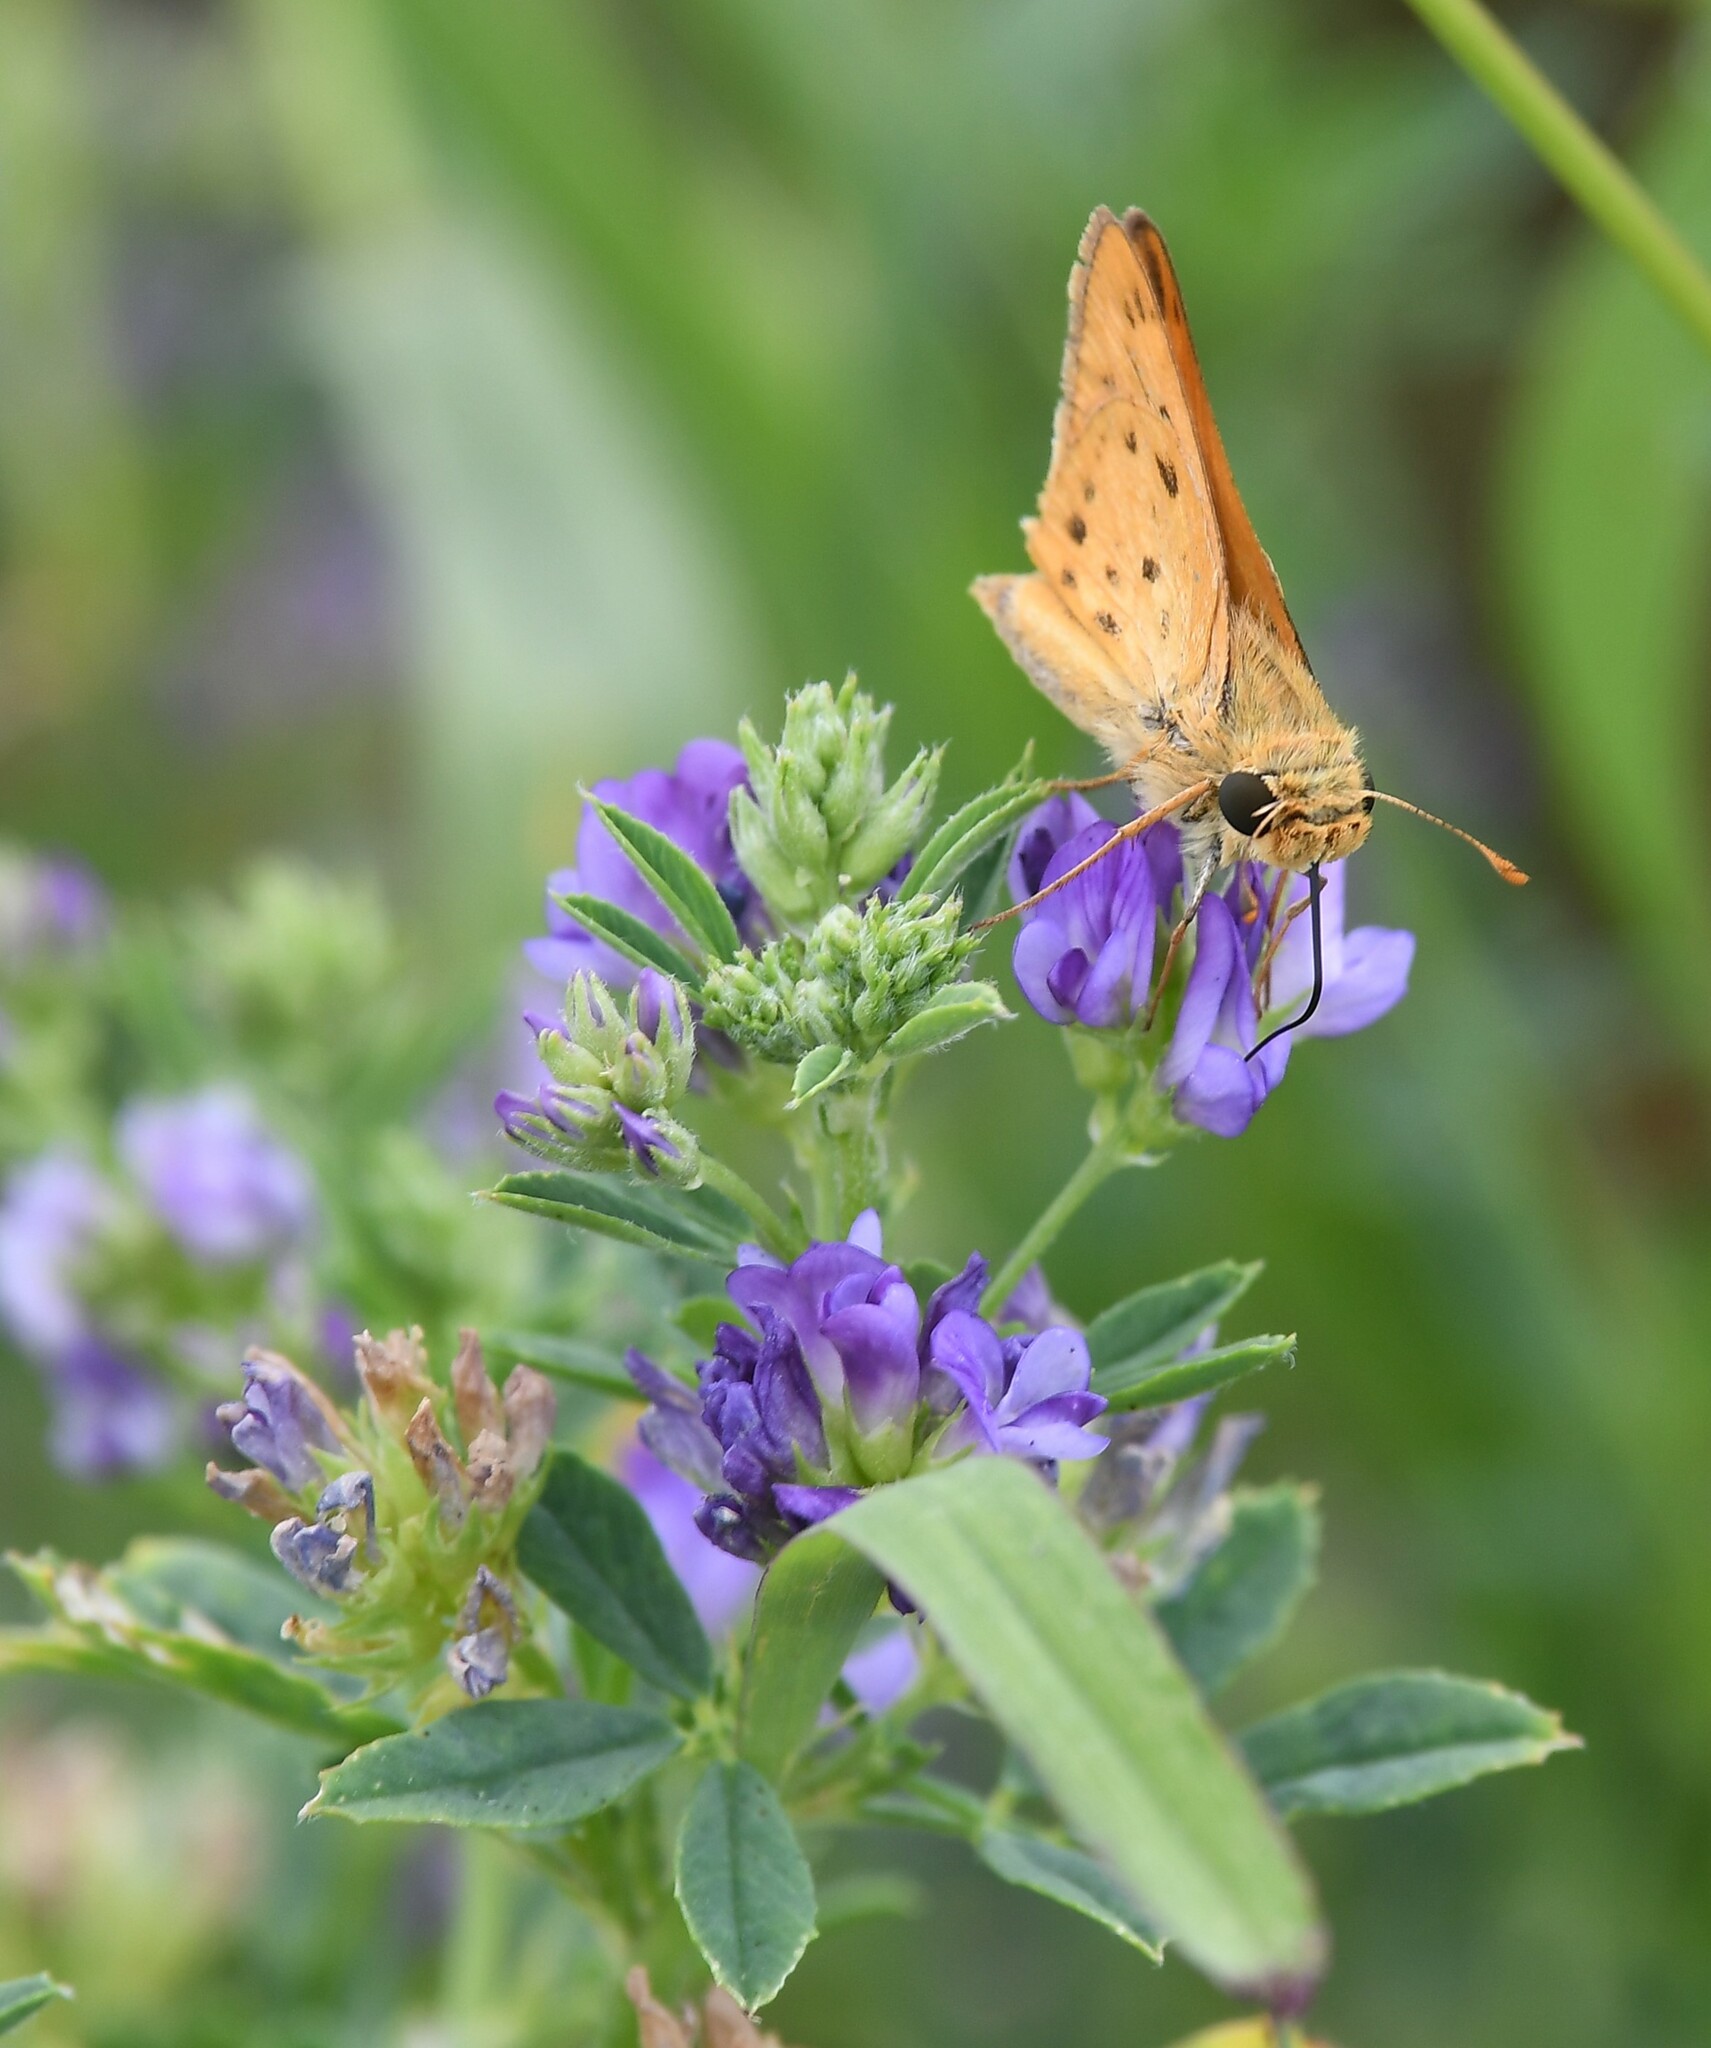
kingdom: Animalia
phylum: Arthropoda
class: Insecta
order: Lepidoptera
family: Hesperiidae
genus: Hylephila
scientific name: Hylephila phyleus
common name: Fiery skipper
